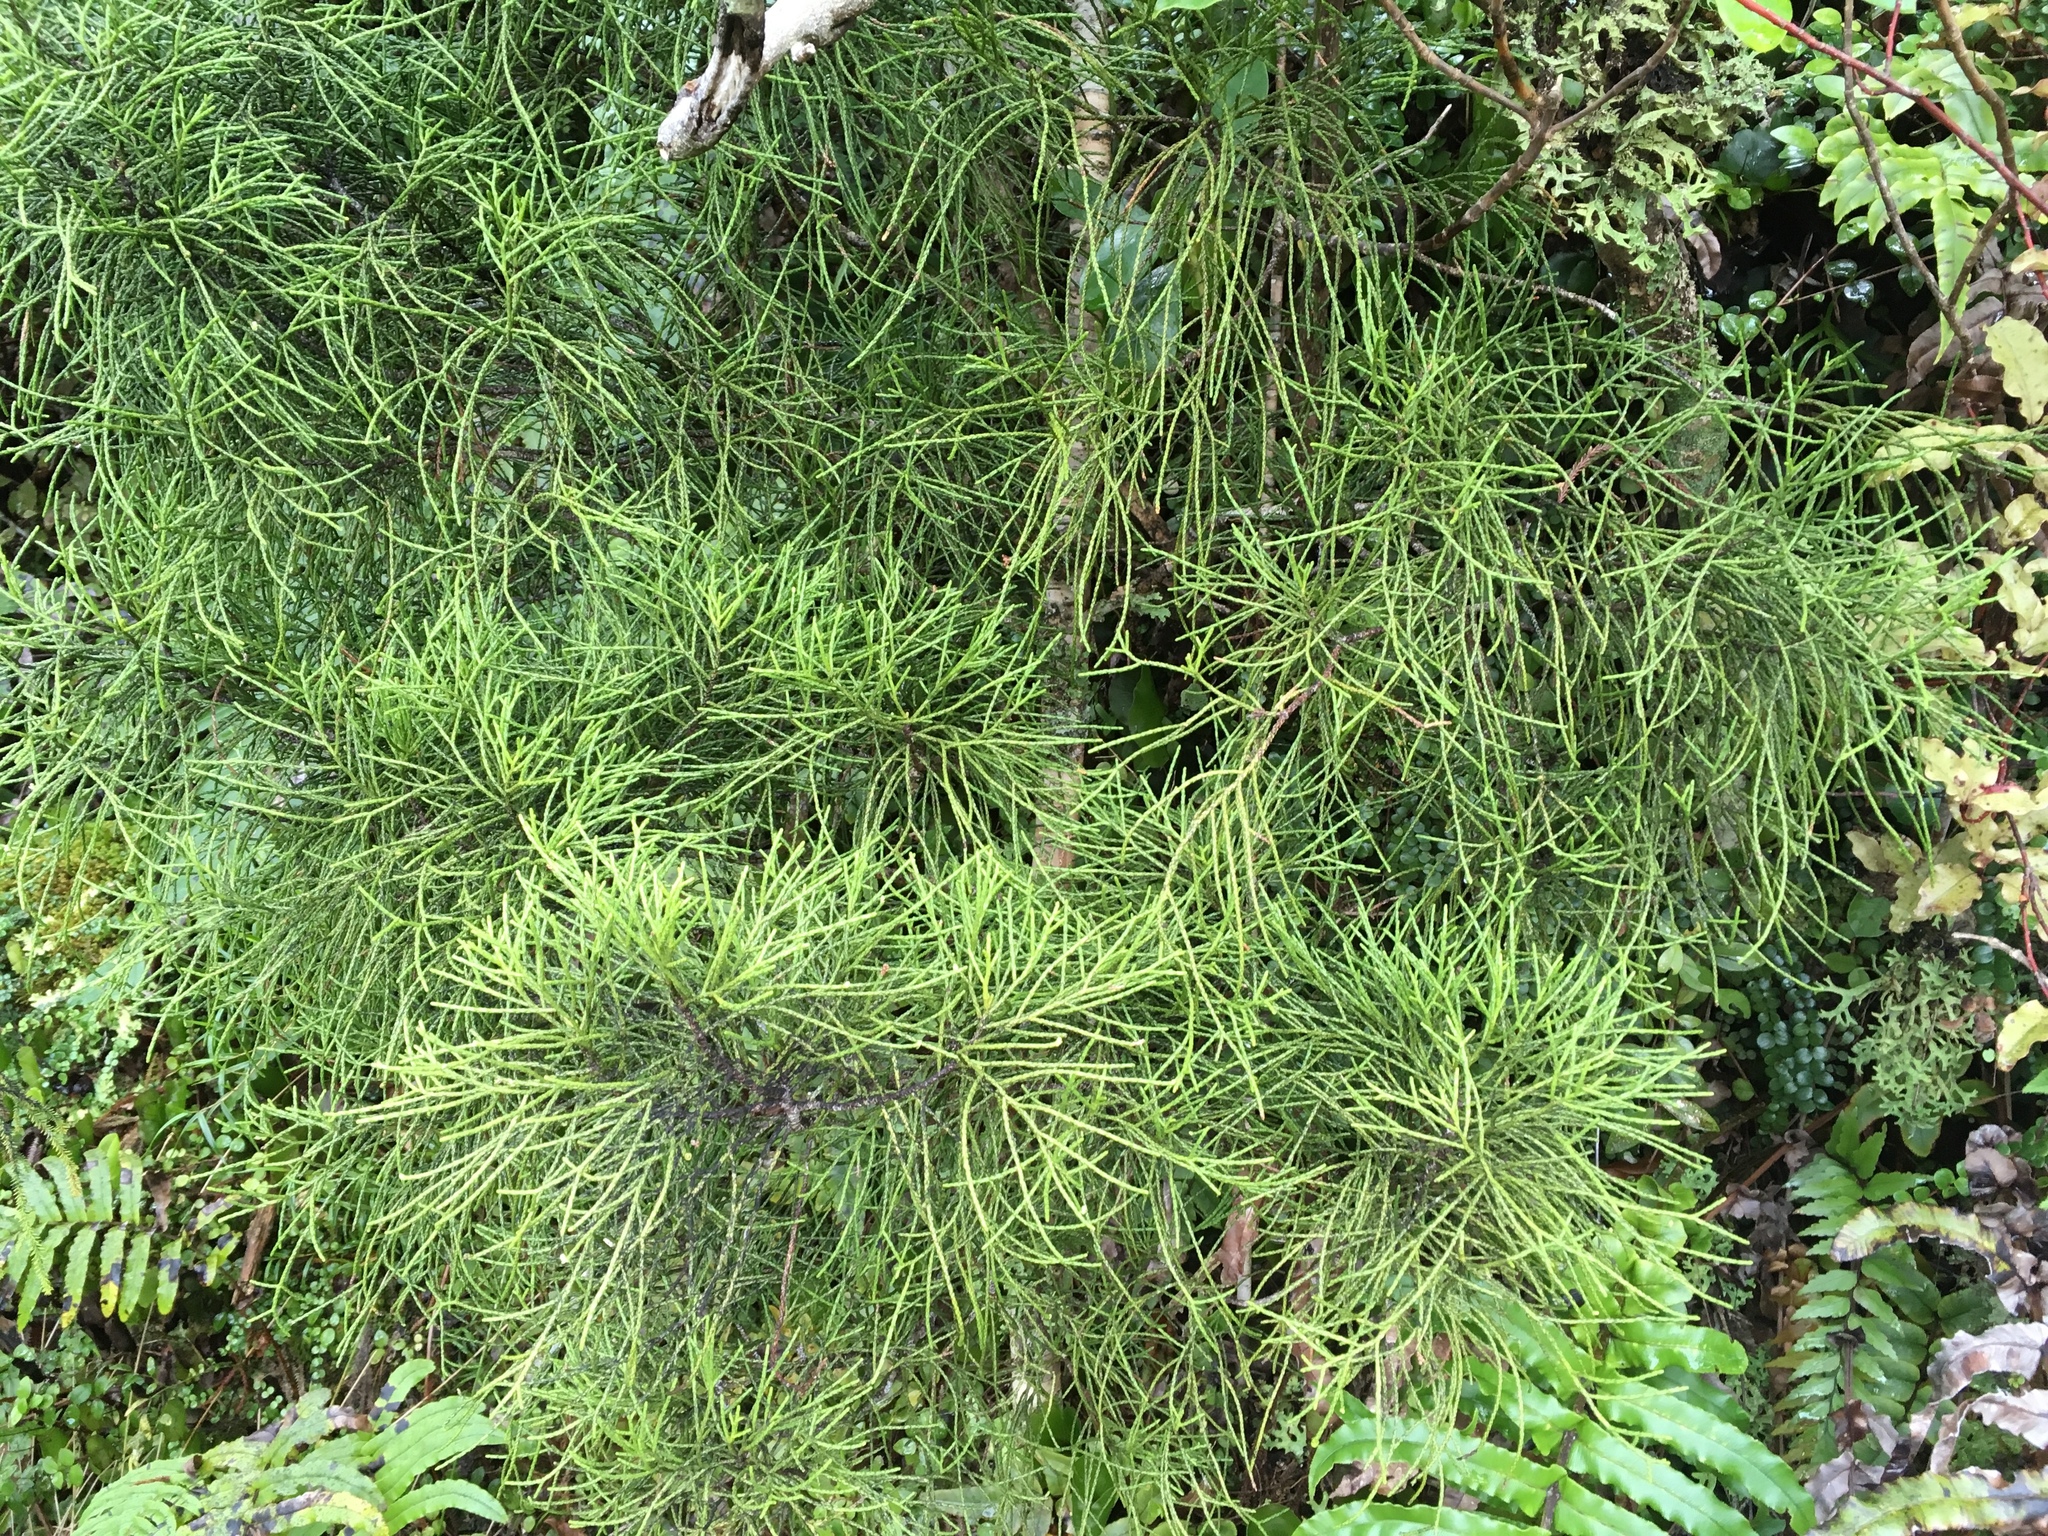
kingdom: Plantae
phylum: Tracheophyta
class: Pinopsida
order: Pinales
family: Podocarpaceae
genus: Manoao
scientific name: Manoao colensoi
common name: Silver pine
